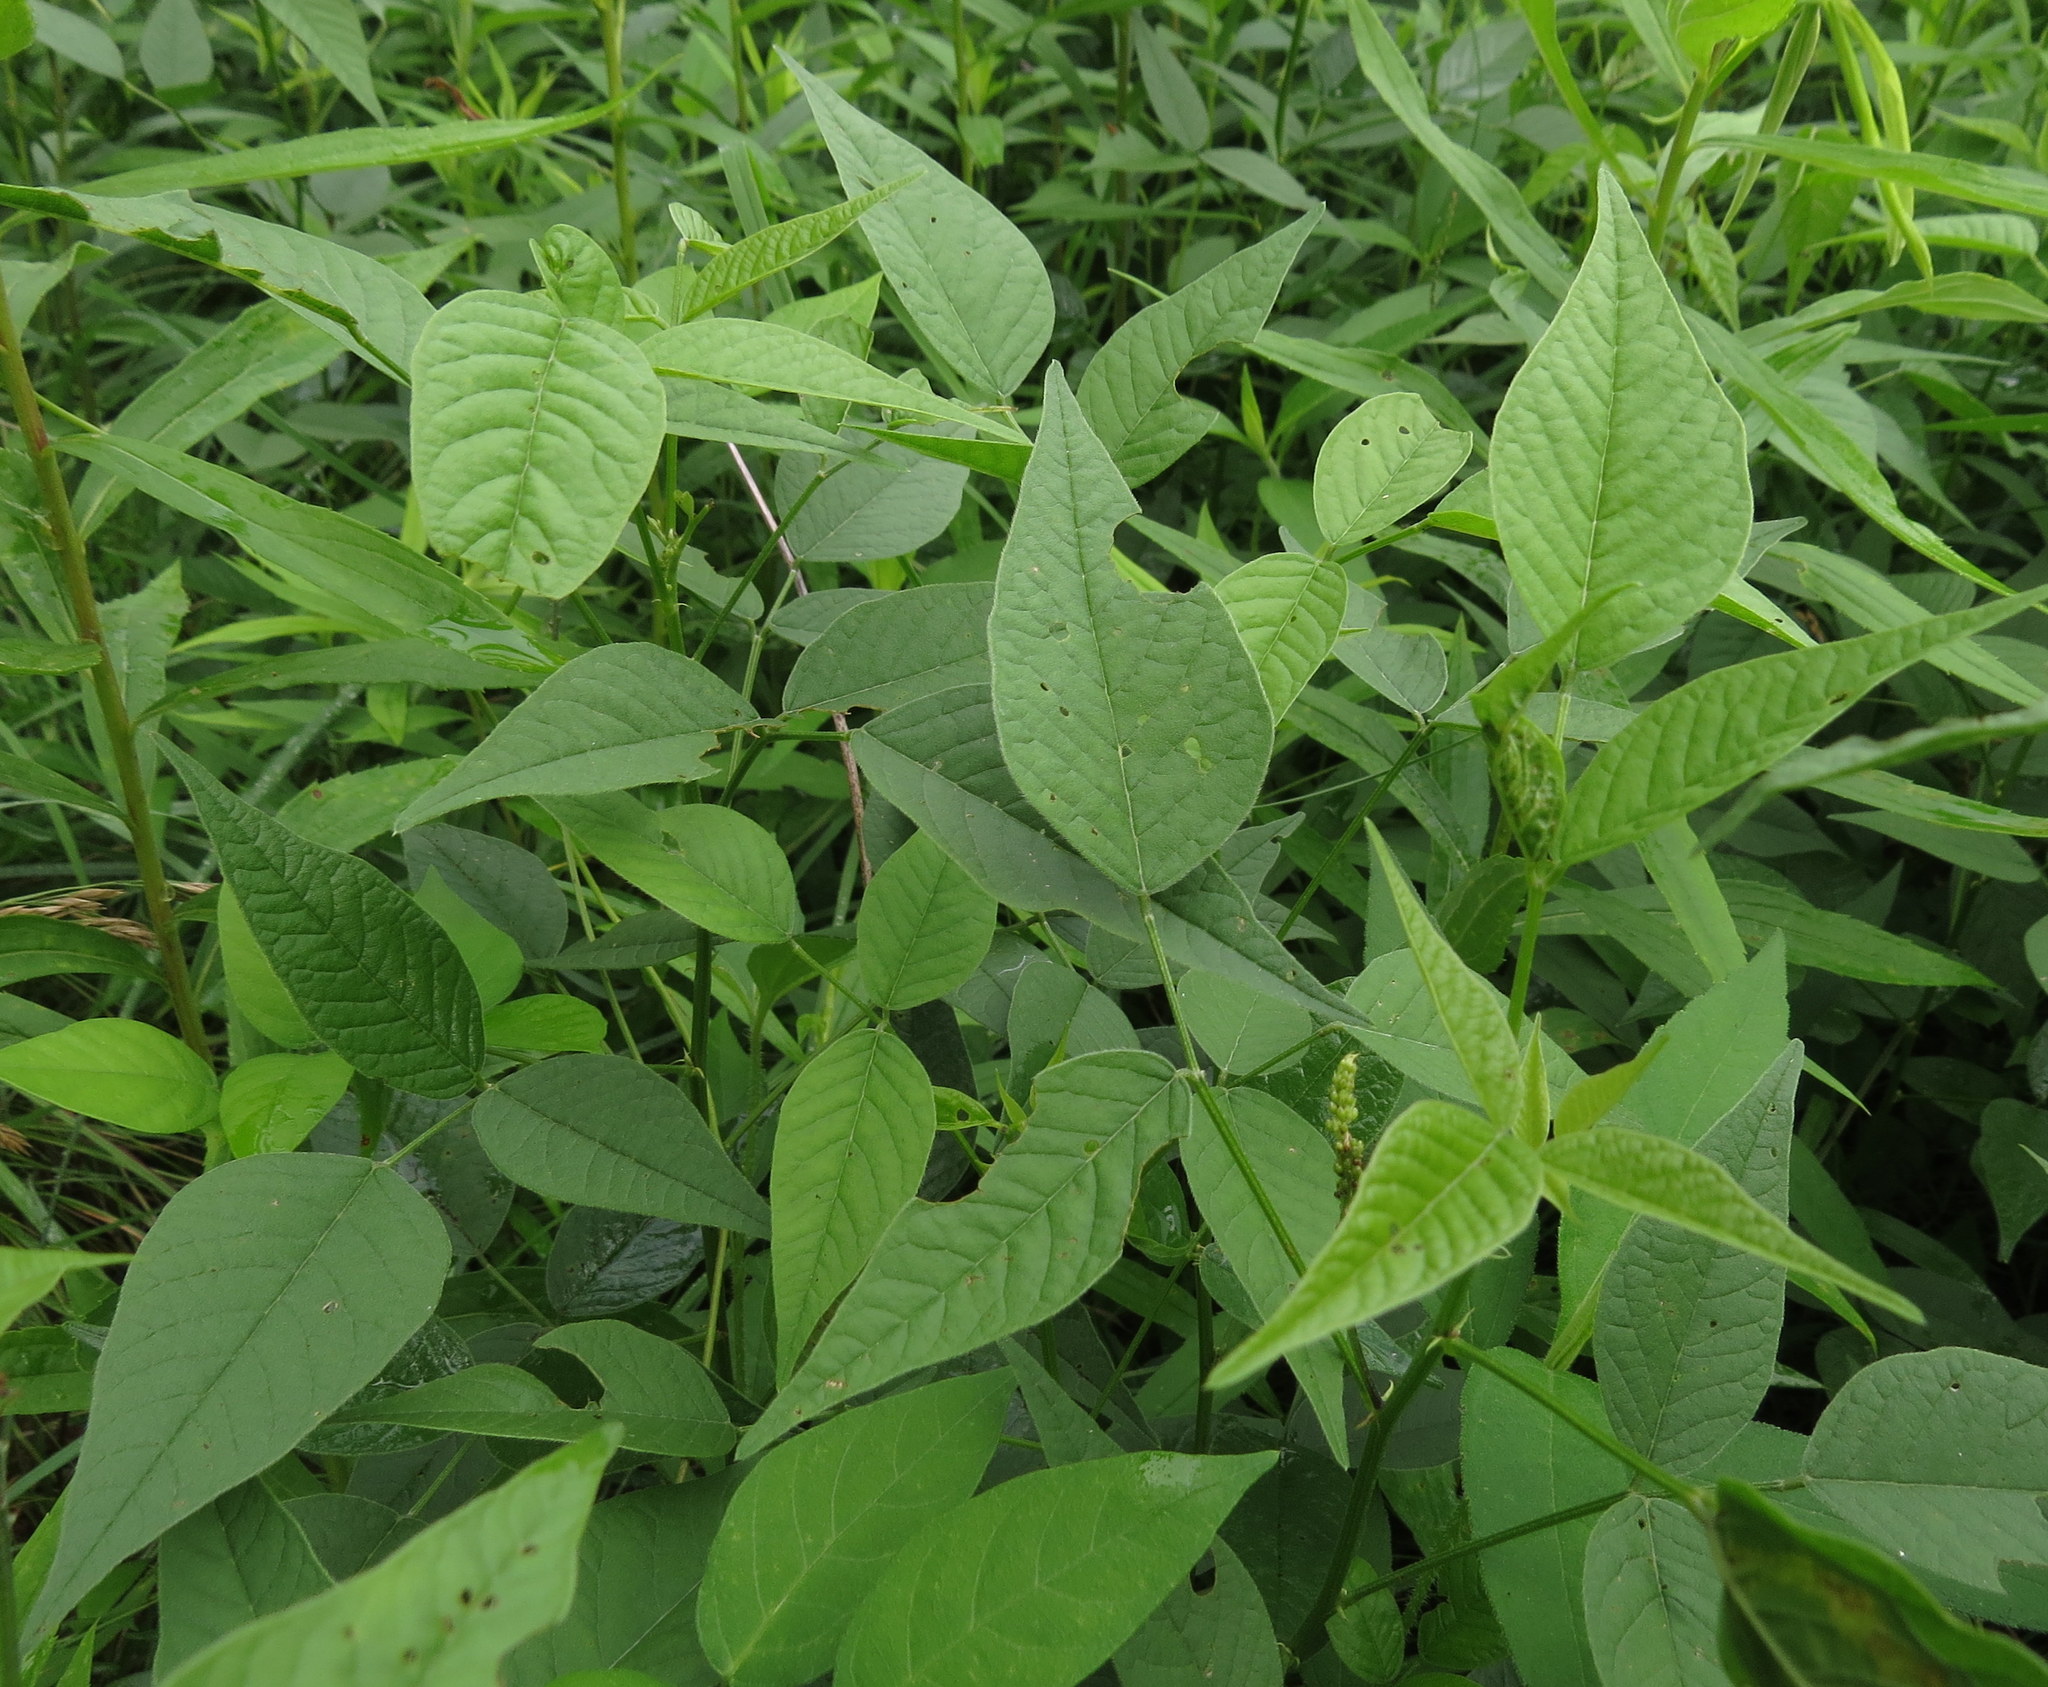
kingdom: Plantae
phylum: Tracheophyta
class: Magnoliopsida
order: Fabales
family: Fabaceae
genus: Orbexilum
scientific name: Orbexilum onobrychis
